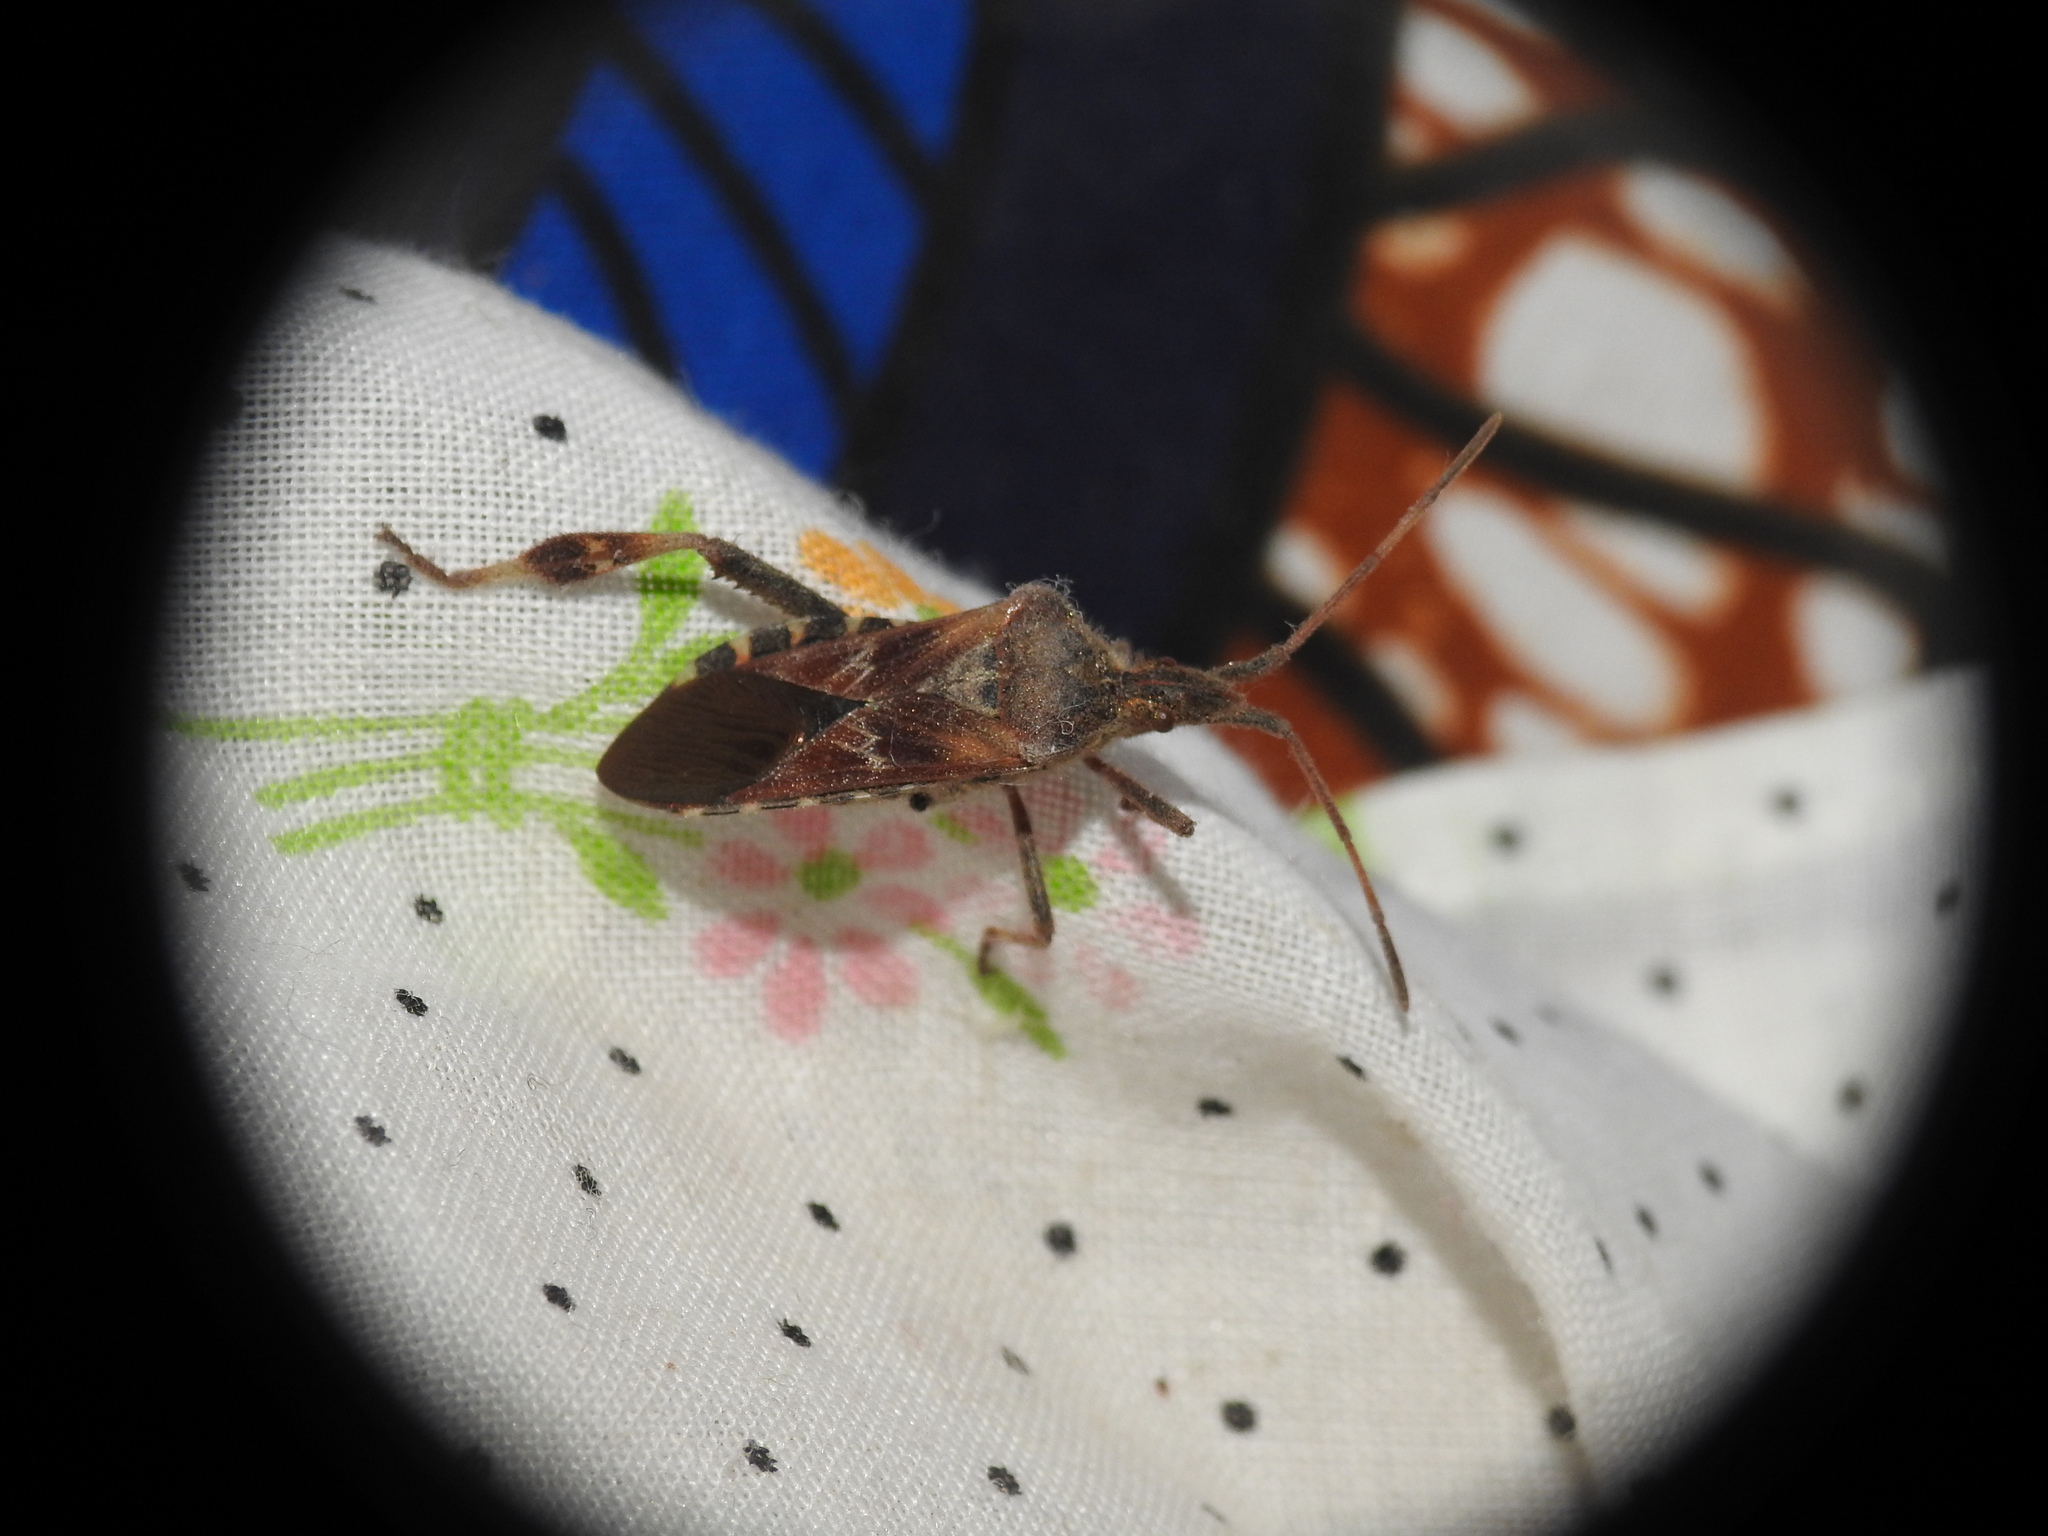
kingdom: Animalia
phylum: Arthropoda
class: Insecta
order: Hemiptera
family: Coreidae
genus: Leptoglossus
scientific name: Leptoglossus occidentalis
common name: Western conifer-seed bug
